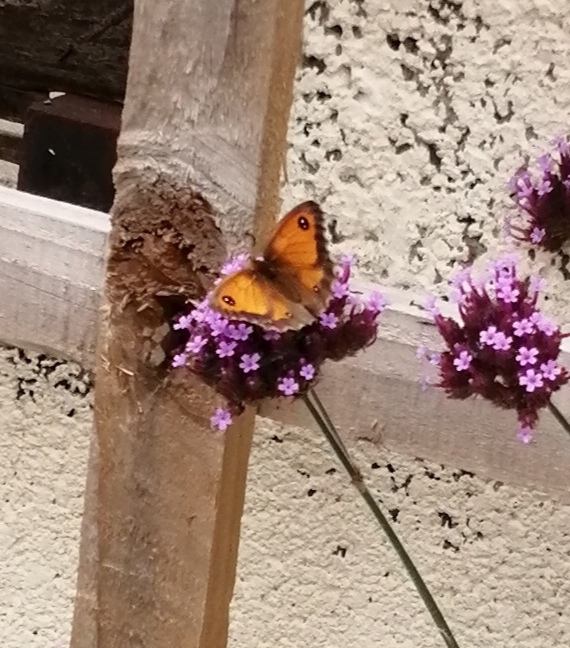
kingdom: Animalia
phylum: Arthropoda
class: Insecta
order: Lepidoptera
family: Nymphalidae
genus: Pyronia
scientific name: Pyronia tithonus
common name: Gatekeeper
